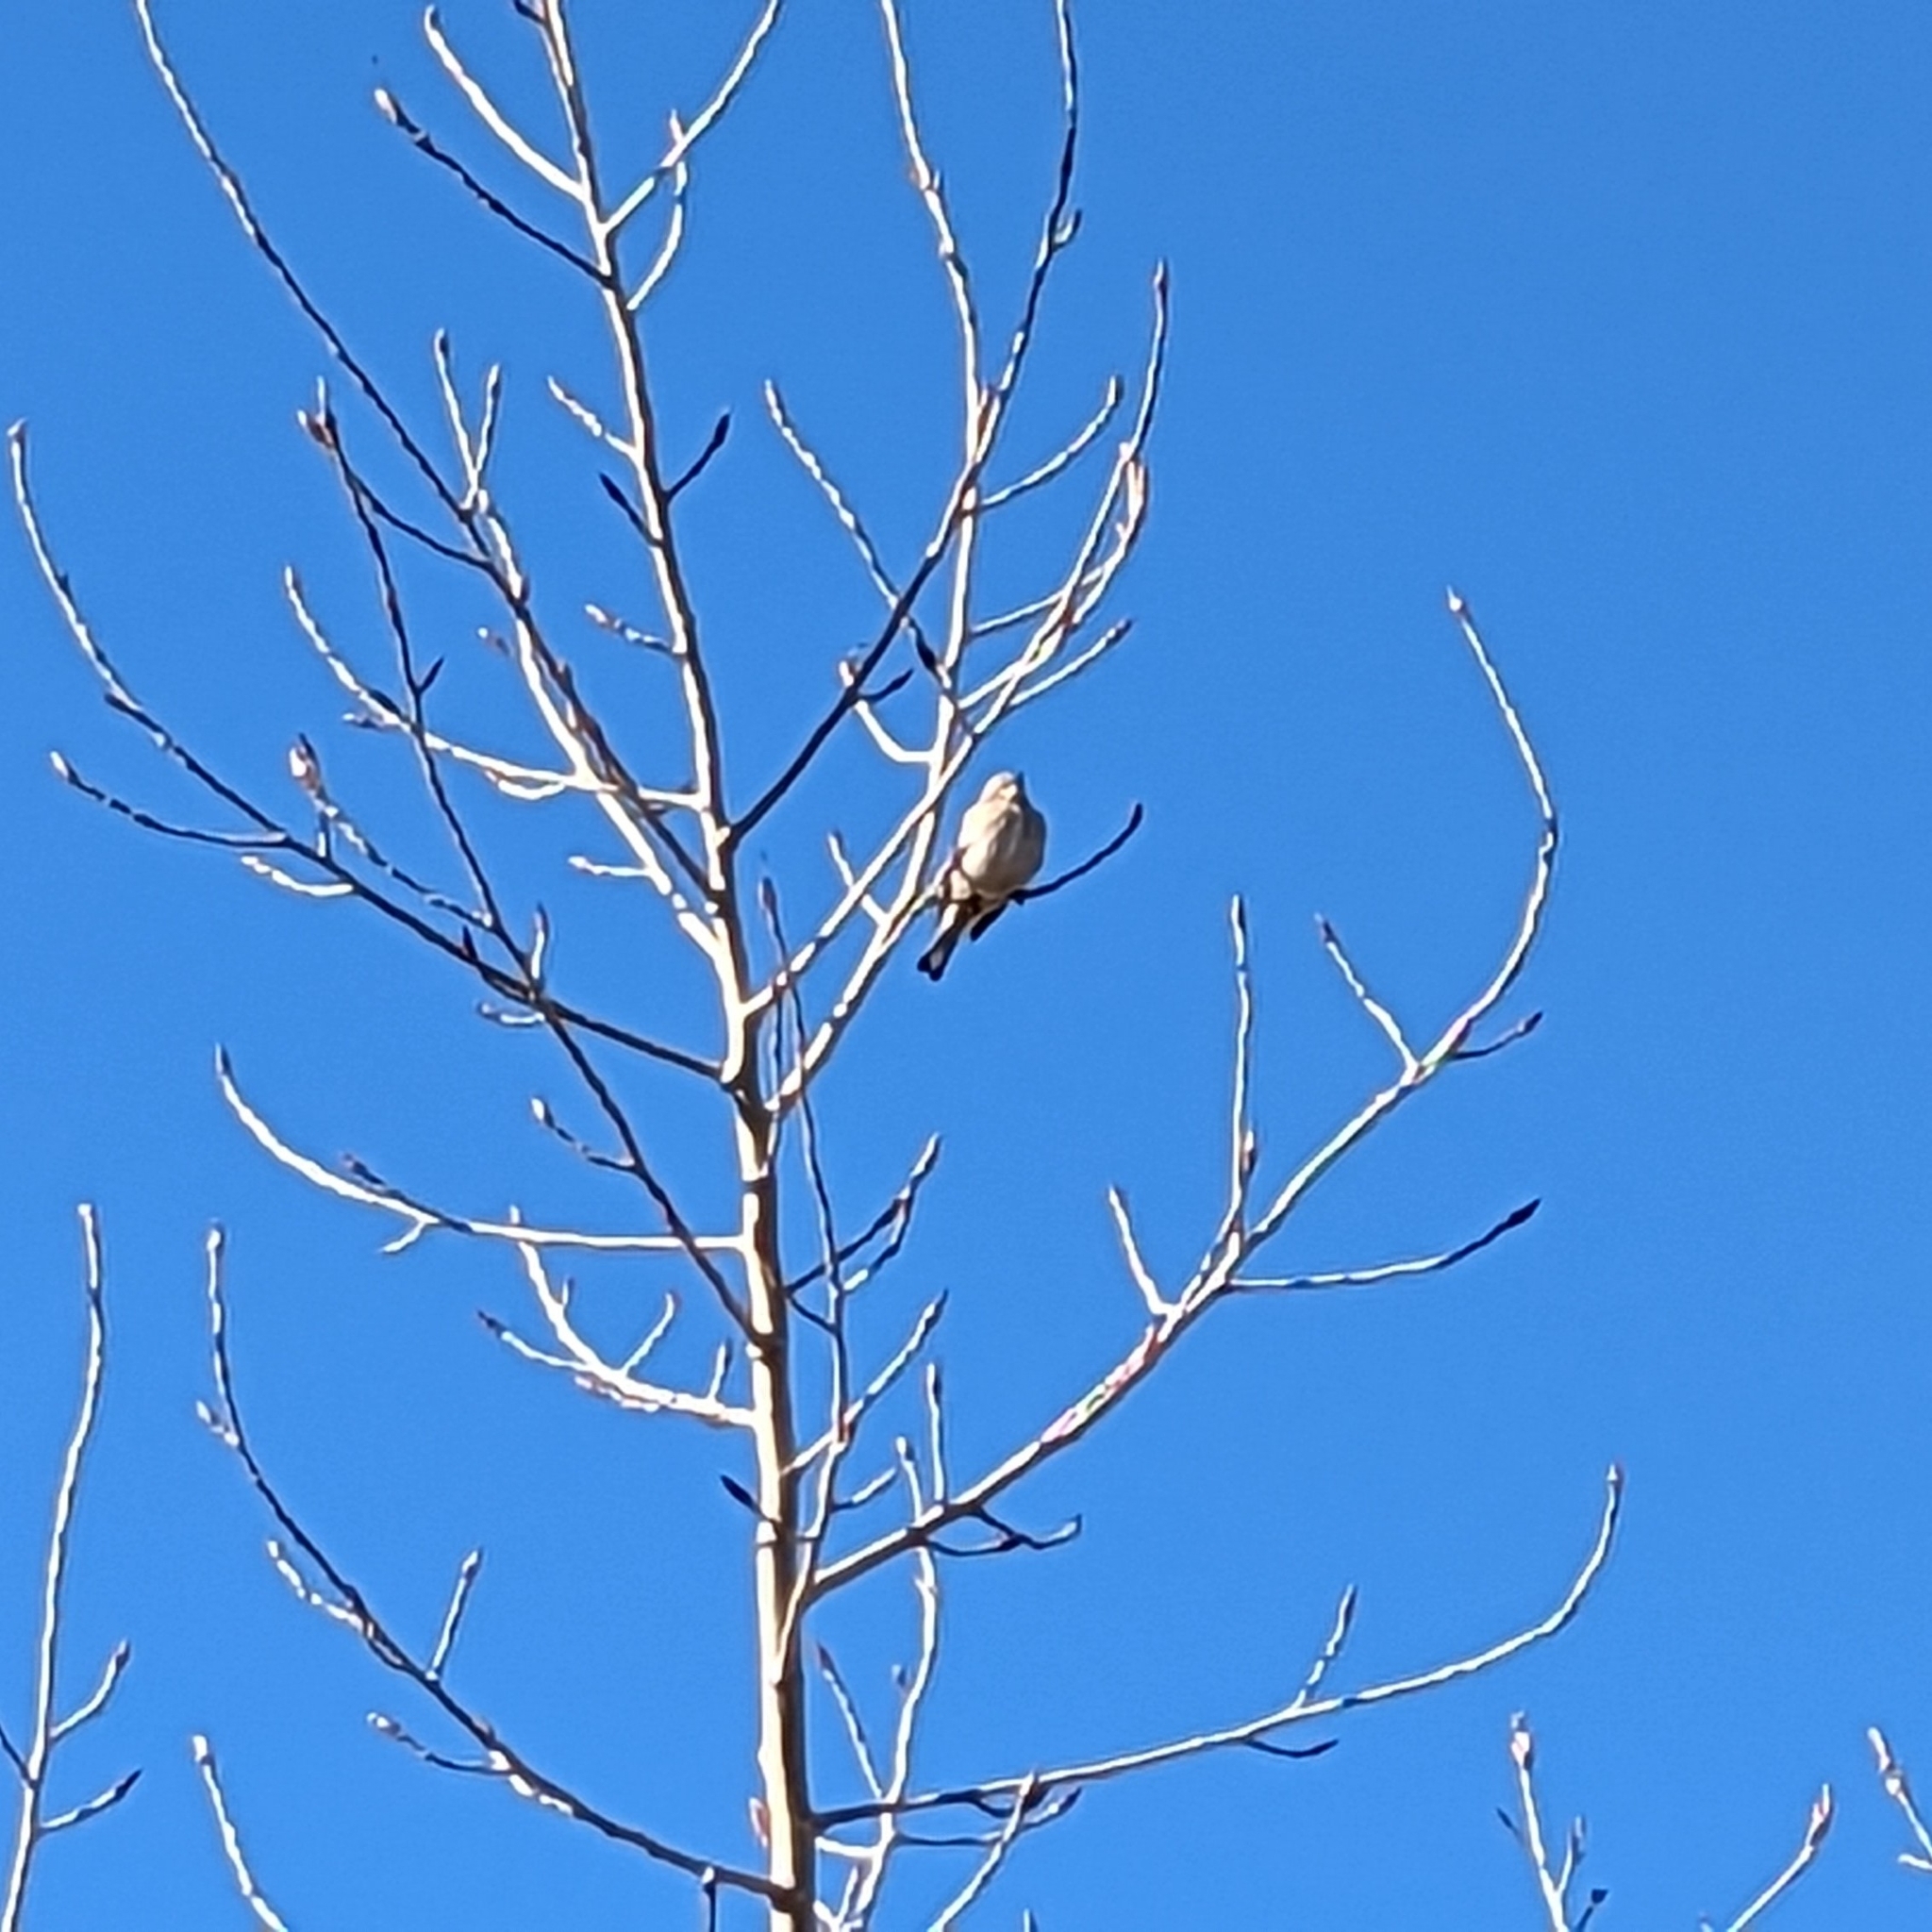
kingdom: Animalia
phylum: Chordata
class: Aves
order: Passeriformes
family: Parulidae
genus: Setophaga
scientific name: Setophaga coronata
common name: Myrtle warbler
